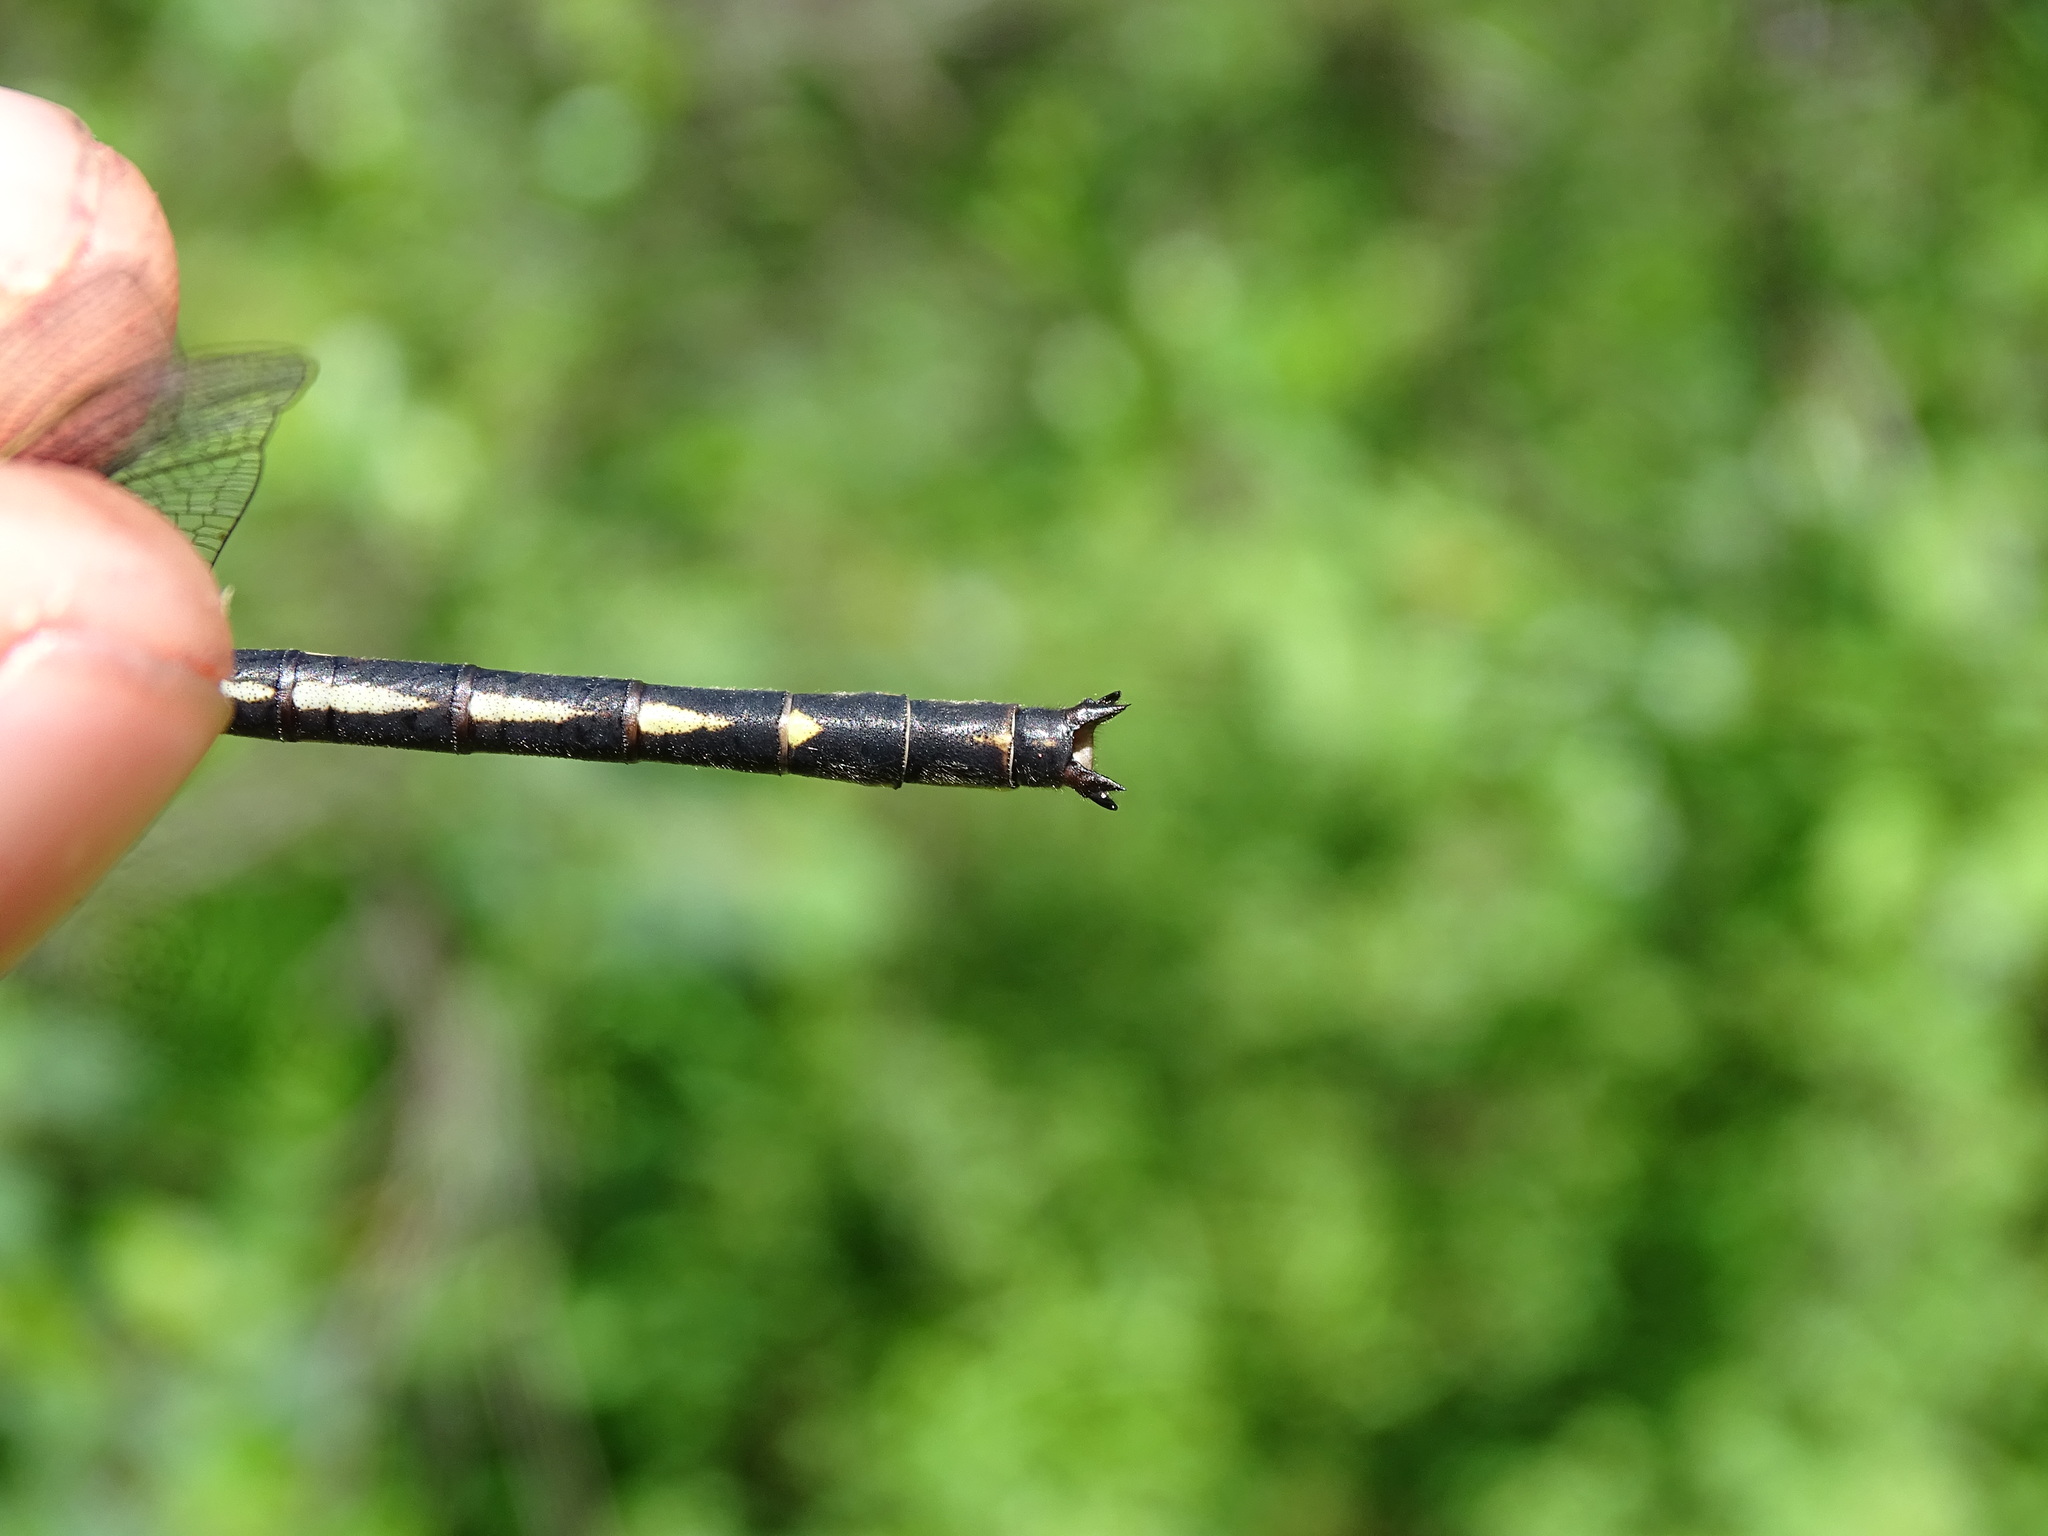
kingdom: Animalia
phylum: Arthropoda
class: Insecta
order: Odonata
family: Gomphidae
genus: Phanogomphus
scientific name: Phanogomphus spicatus
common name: Dusky clubtail
